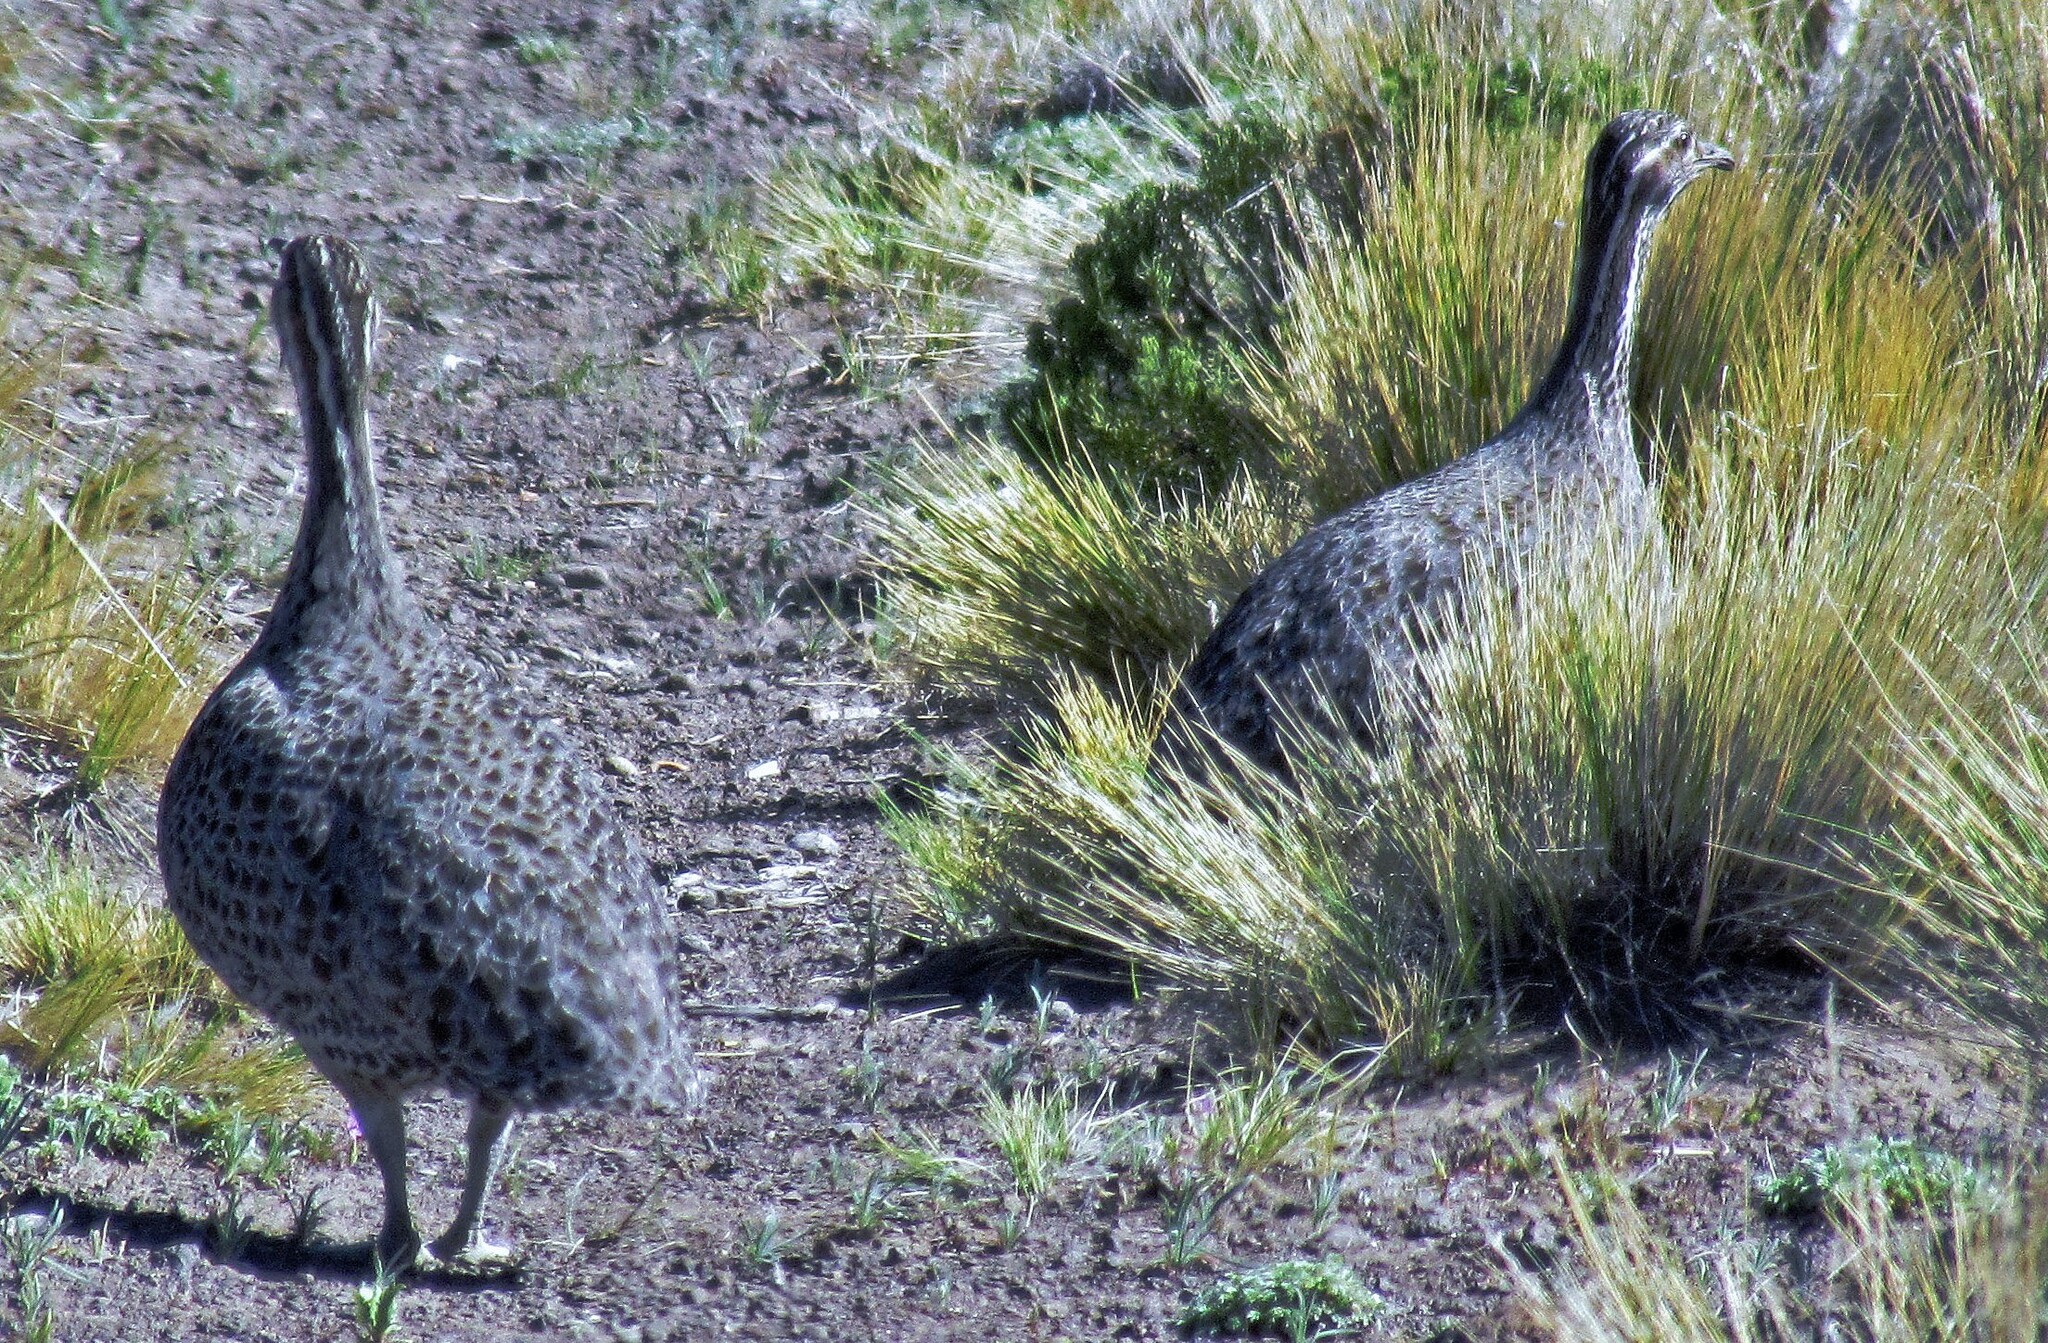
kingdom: Animalia
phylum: Chordata
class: Aves
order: Tinamiformes
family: Tinamidae
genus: Tinamotis
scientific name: Tinamotis ingoufi
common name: Patagonian tinamou
